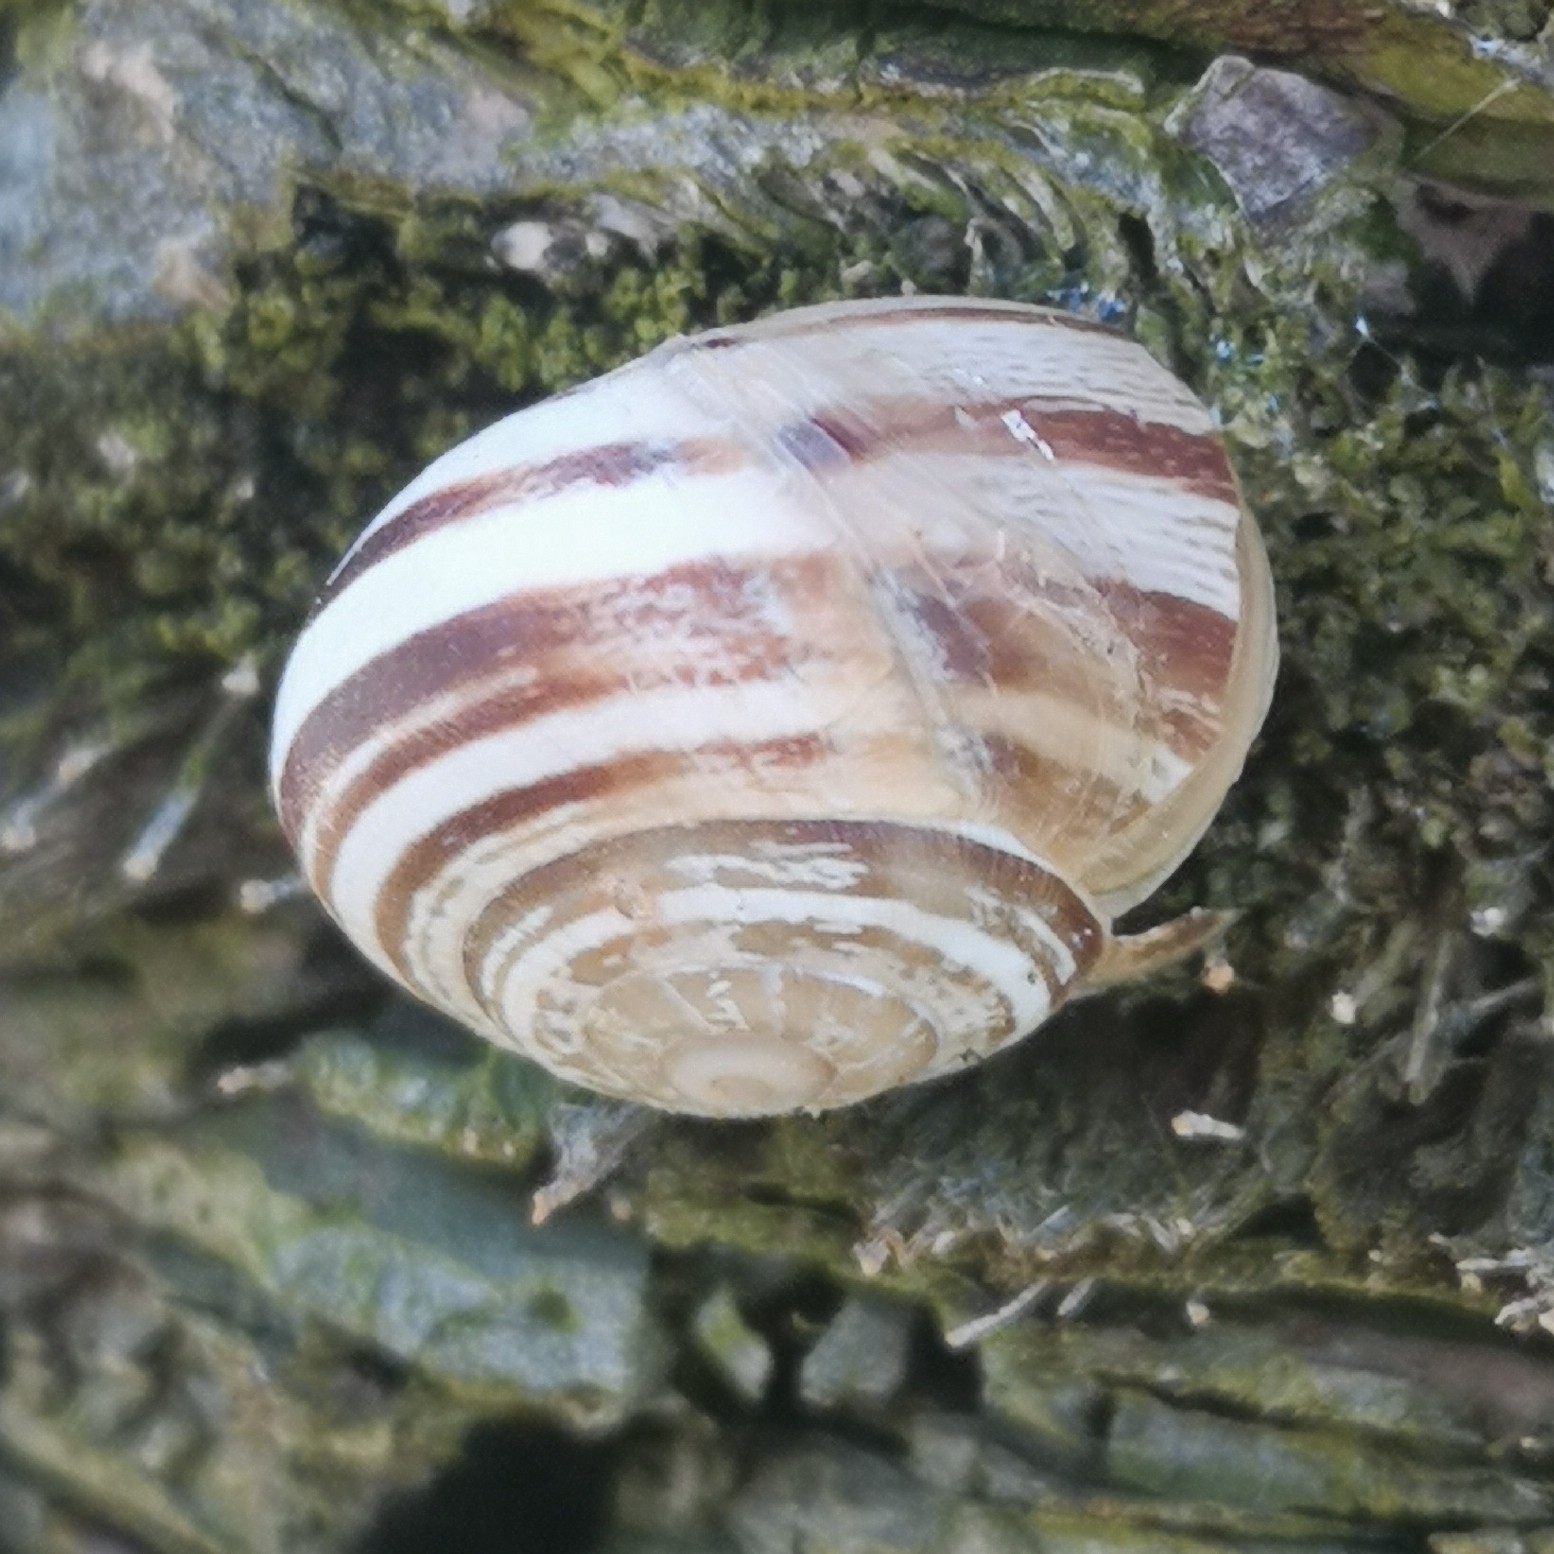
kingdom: Animalia
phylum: Mollusca
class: Gastropoda
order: Stylommatophora
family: Helicidae
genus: Eobania
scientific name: Eobania vermiculata
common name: Chocolateband snail
